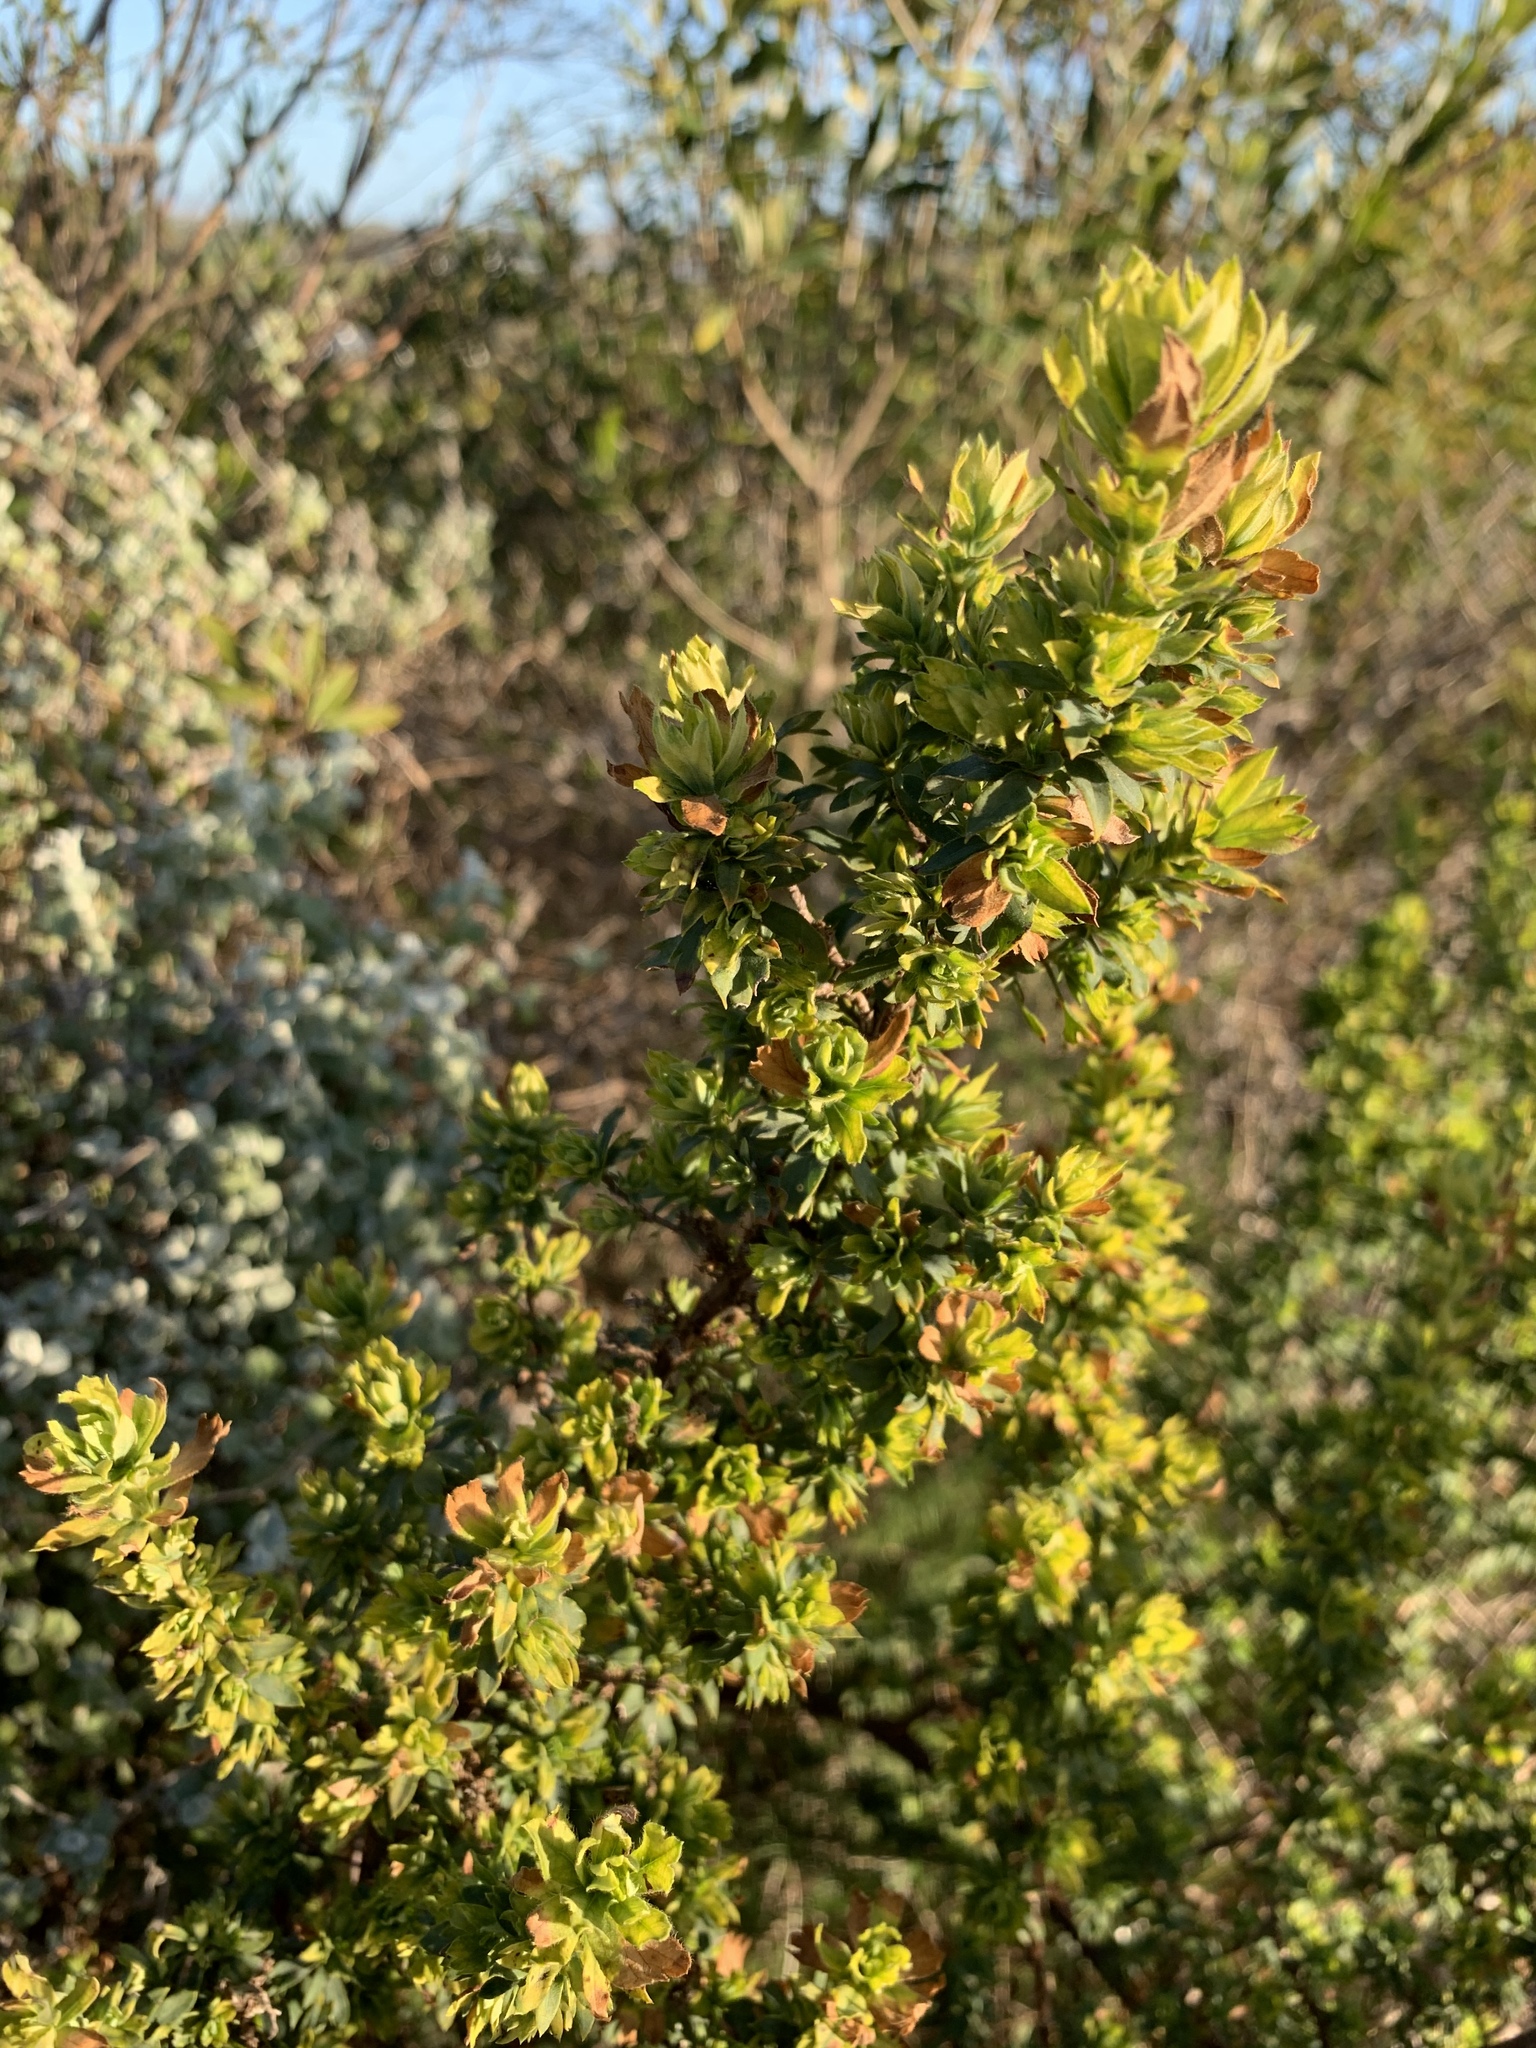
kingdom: Plantae
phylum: Tracheophyta
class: Magnoliopsida
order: Rosales
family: Rosaceae
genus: Cliffortia
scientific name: Cliffortia polygonifolia
